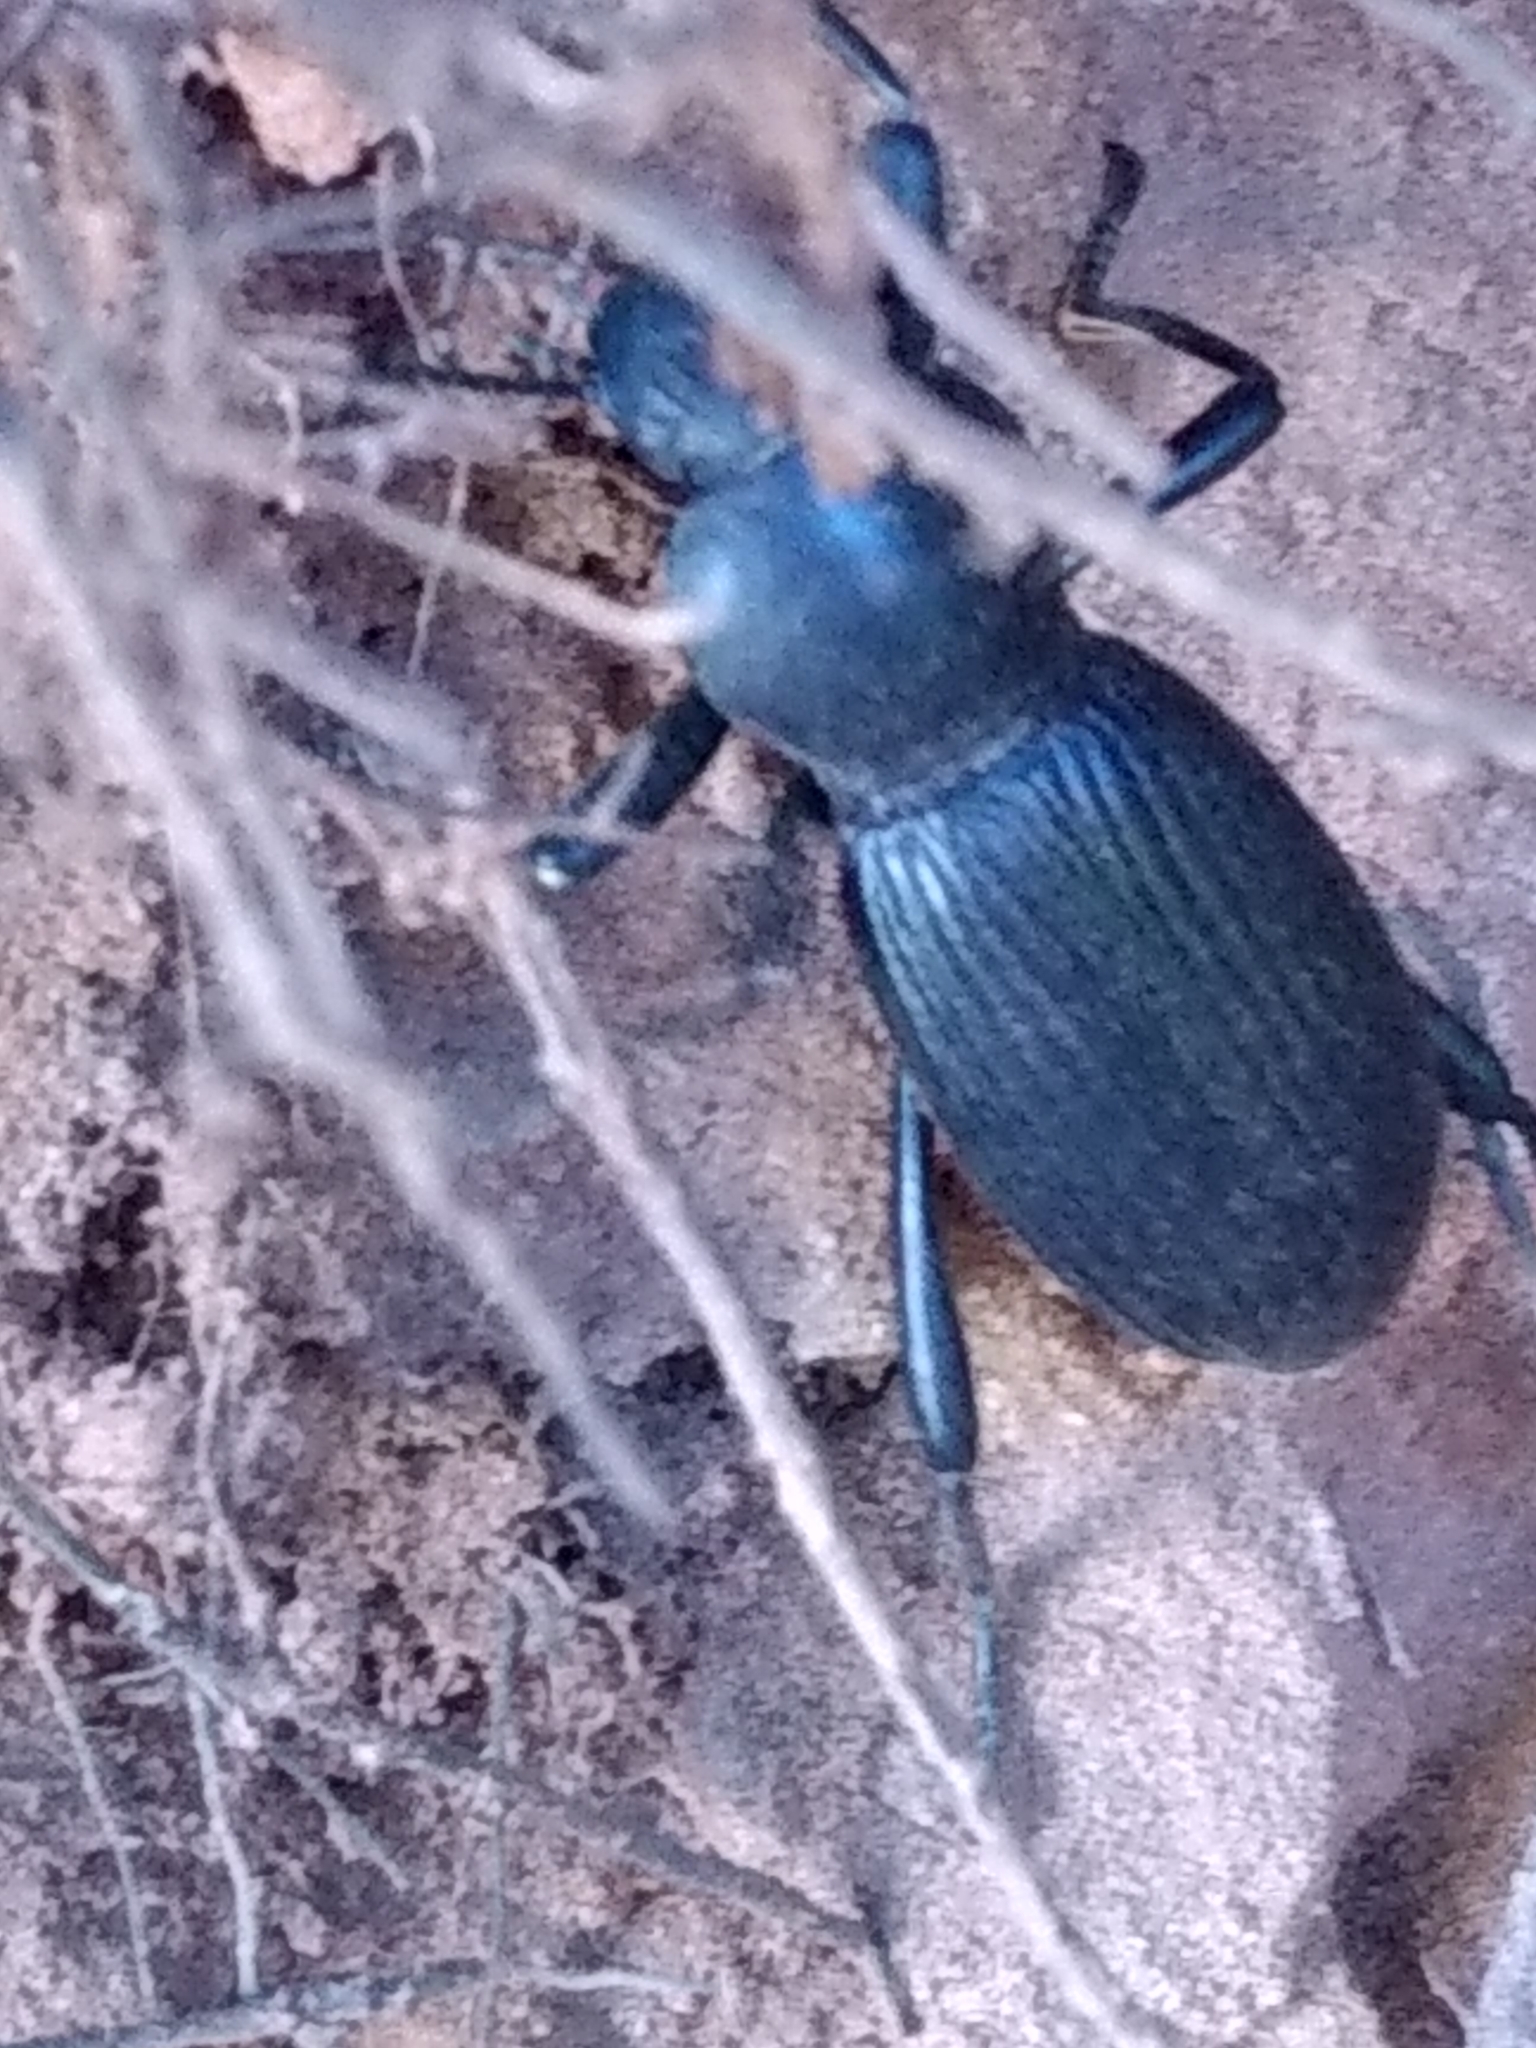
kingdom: Animalia
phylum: Arthropoda
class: Insecta
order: Coleoptera
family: Tenebrionidae
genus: Coelocnemis
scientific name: Coelocnemis sulcata
